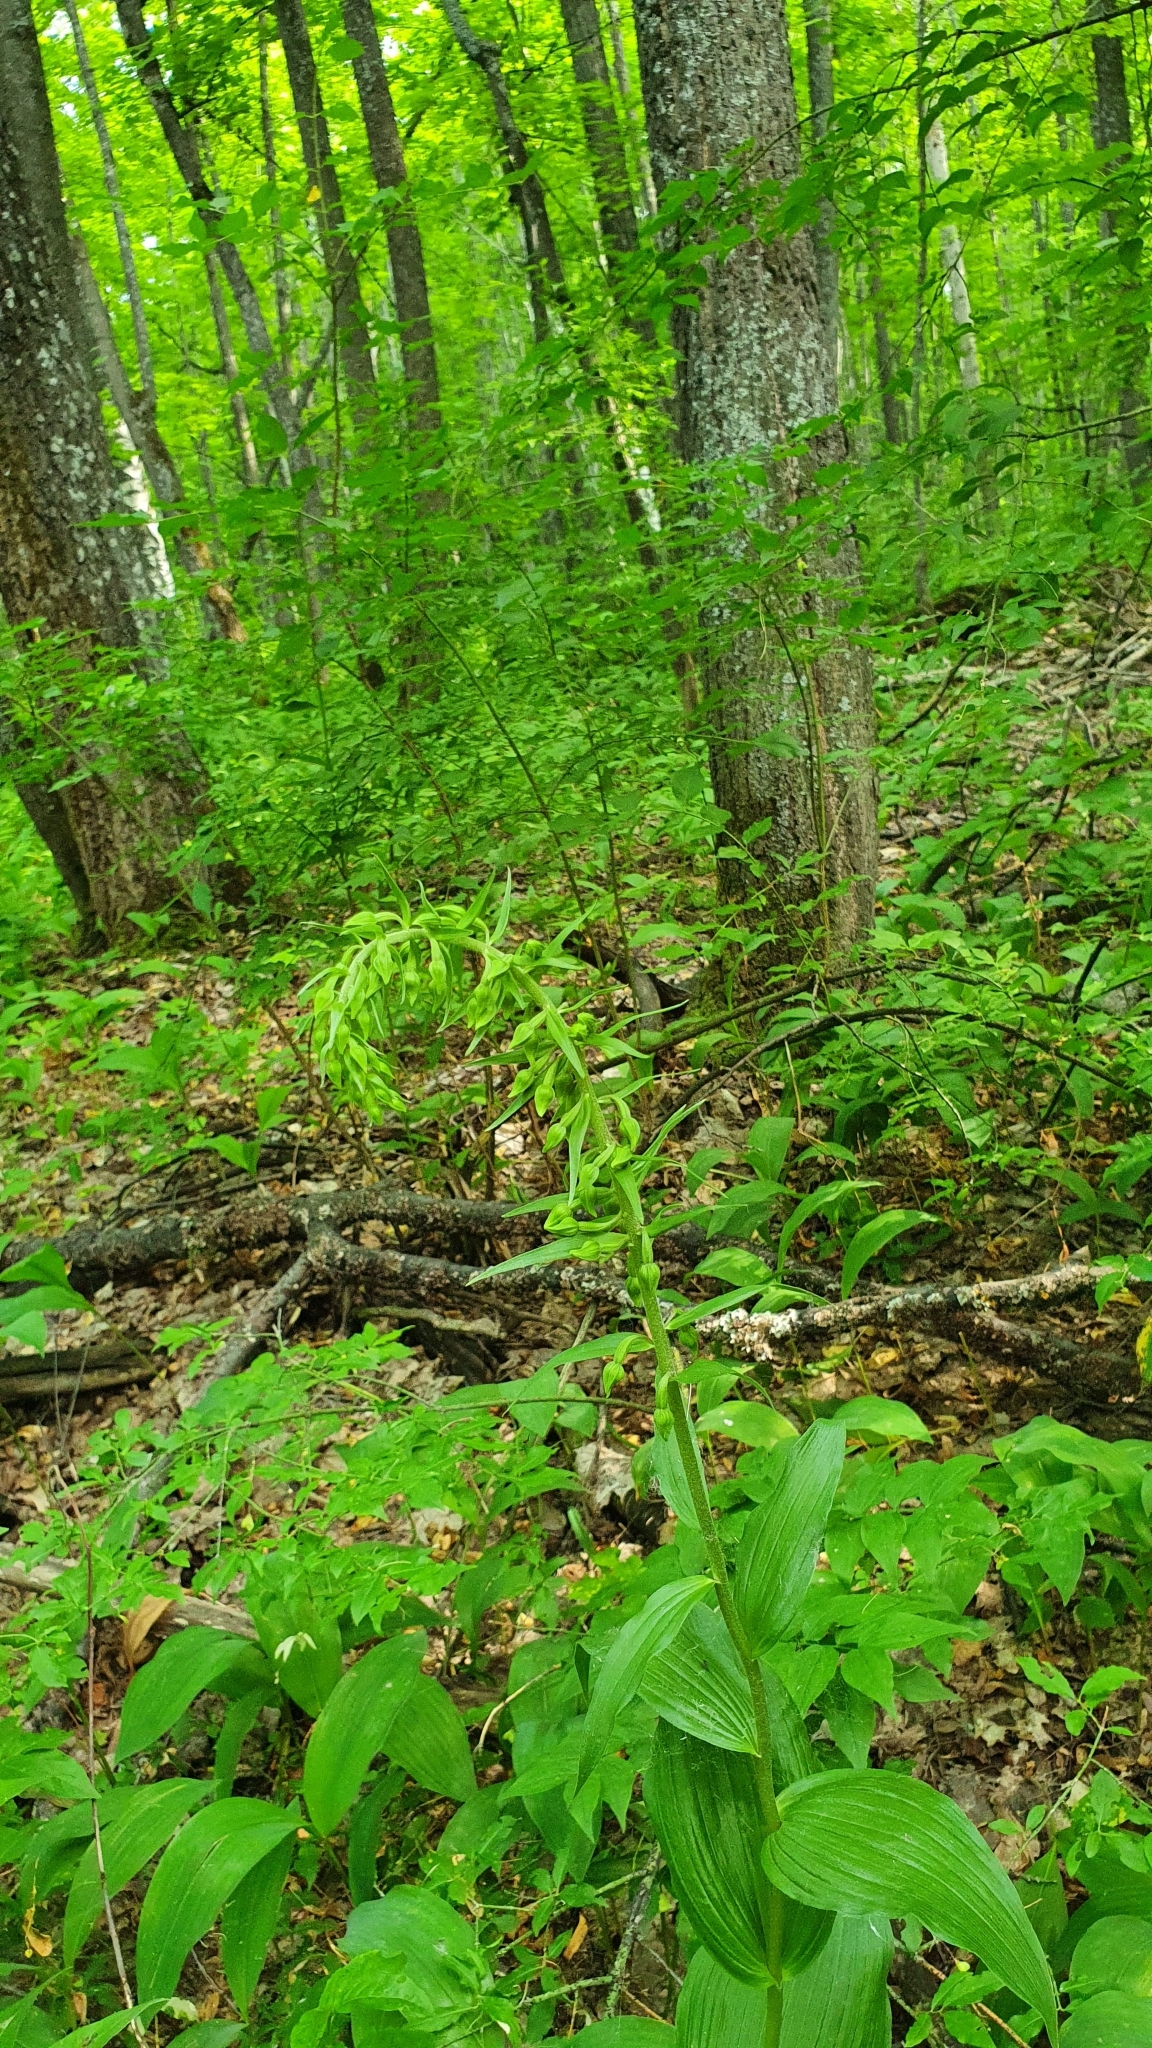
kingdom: Plantae
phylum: Tracheophyta
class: Liliopsida
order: Asparagales
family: Orchidaceae
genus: Epipactis
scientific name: Epipactis helleborine
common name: Broad-leaved helleborine
